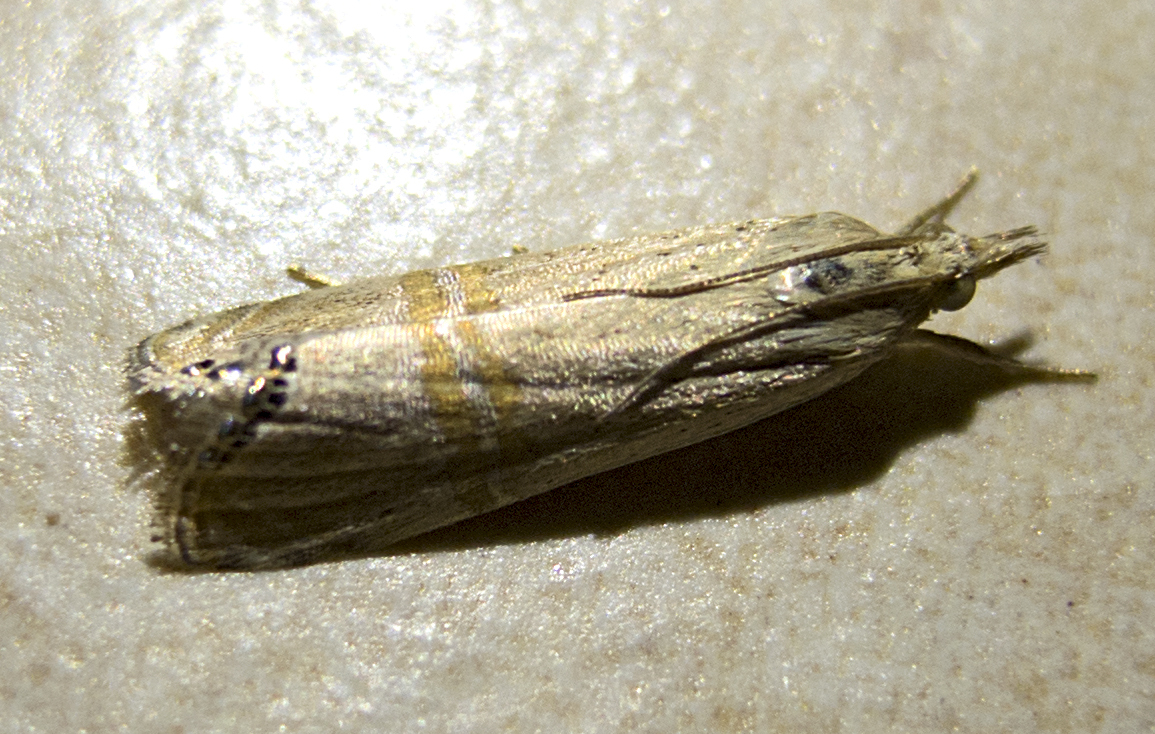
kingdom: Animalia
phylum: Arthropoda
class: Insecta
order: Lepidoptera
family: Crambidae
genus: Euchromius
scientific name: Euchromius ocellea
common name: Necklace veneer moth
